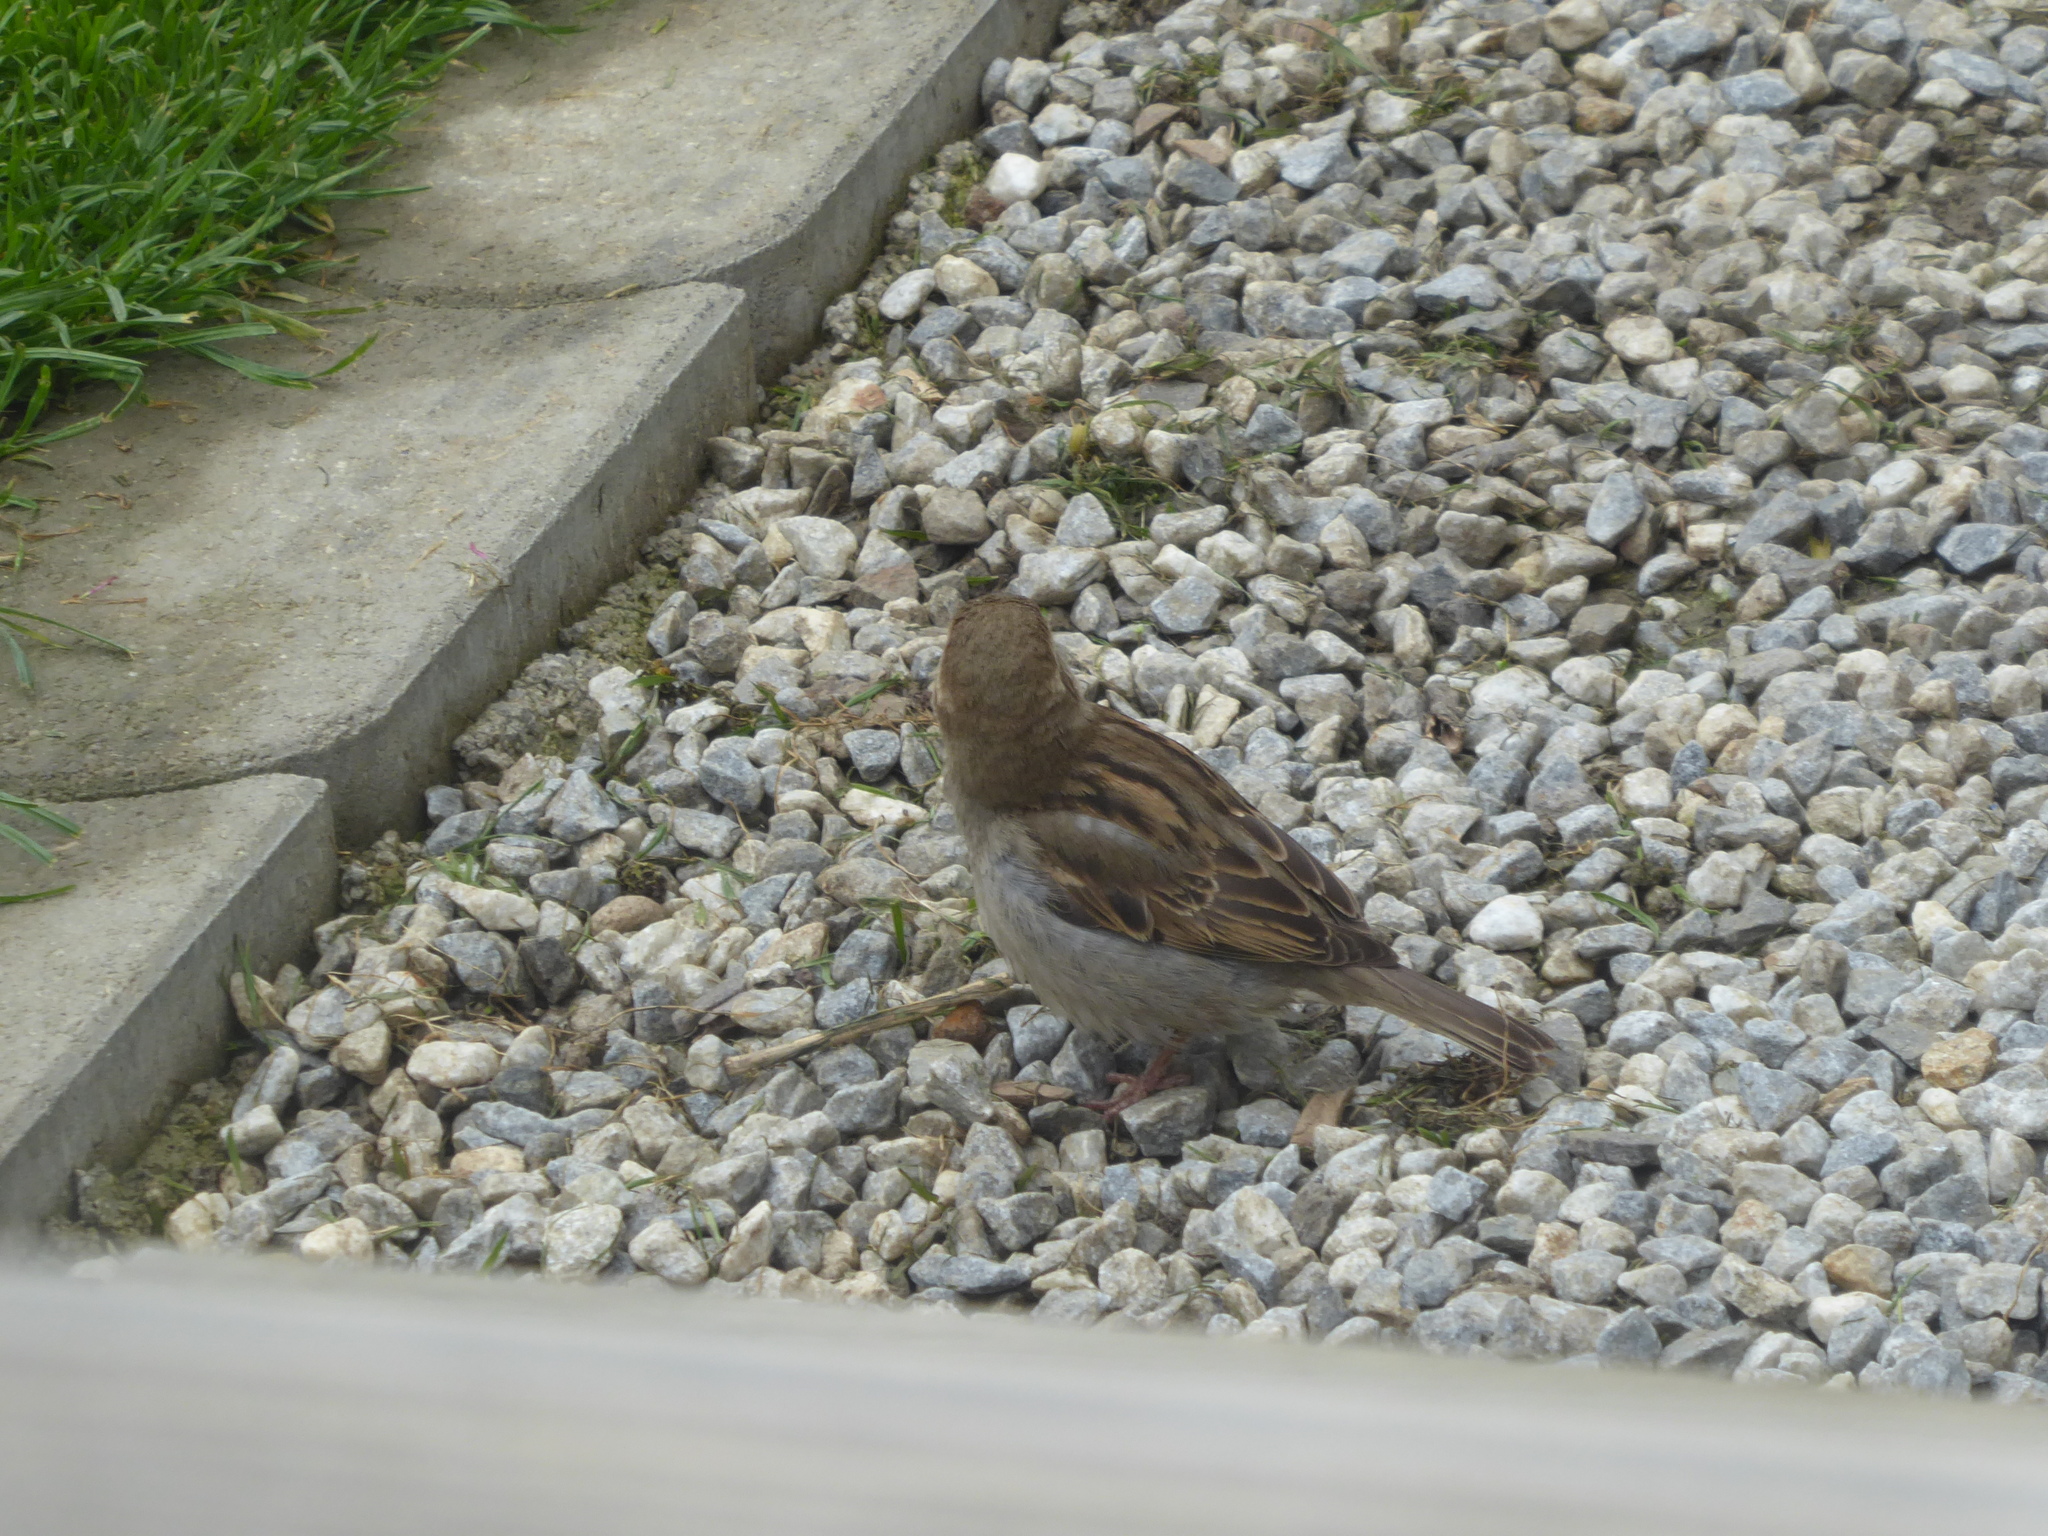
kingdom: Animalia
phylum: Chordata
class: Aves
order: Passeriformes
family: Passeridae
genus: Passer
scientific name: Passer domesticus
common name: House sparrow
